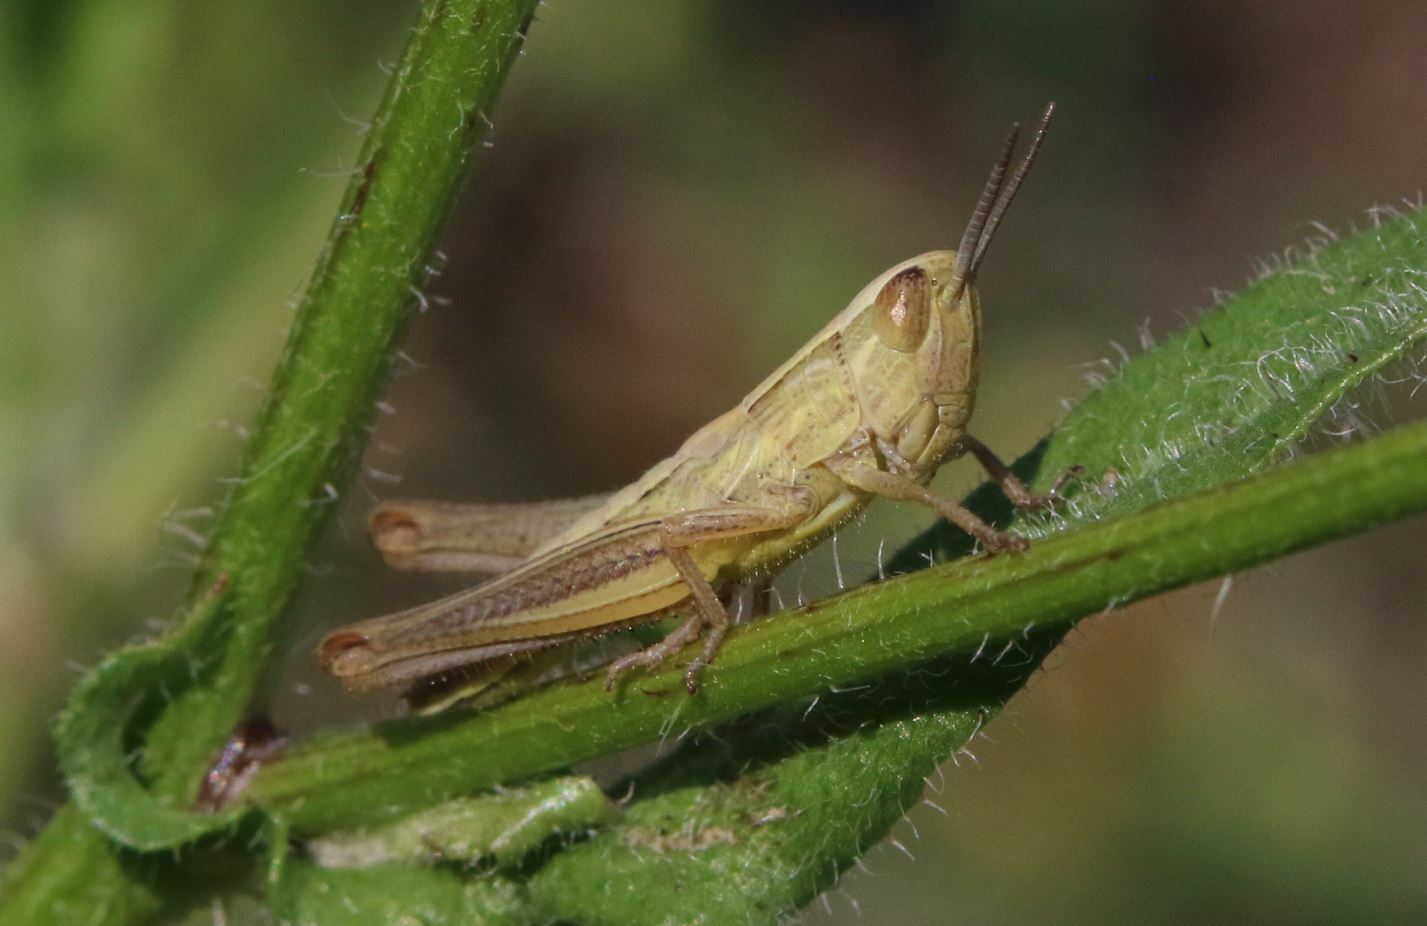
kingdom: Animalia
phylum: Arthropoda
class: Insecta
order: Orthoptera
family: Acrididae
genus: Euchorthippus
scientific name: Euchorthippus declivus
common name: Common straw grasshopper
